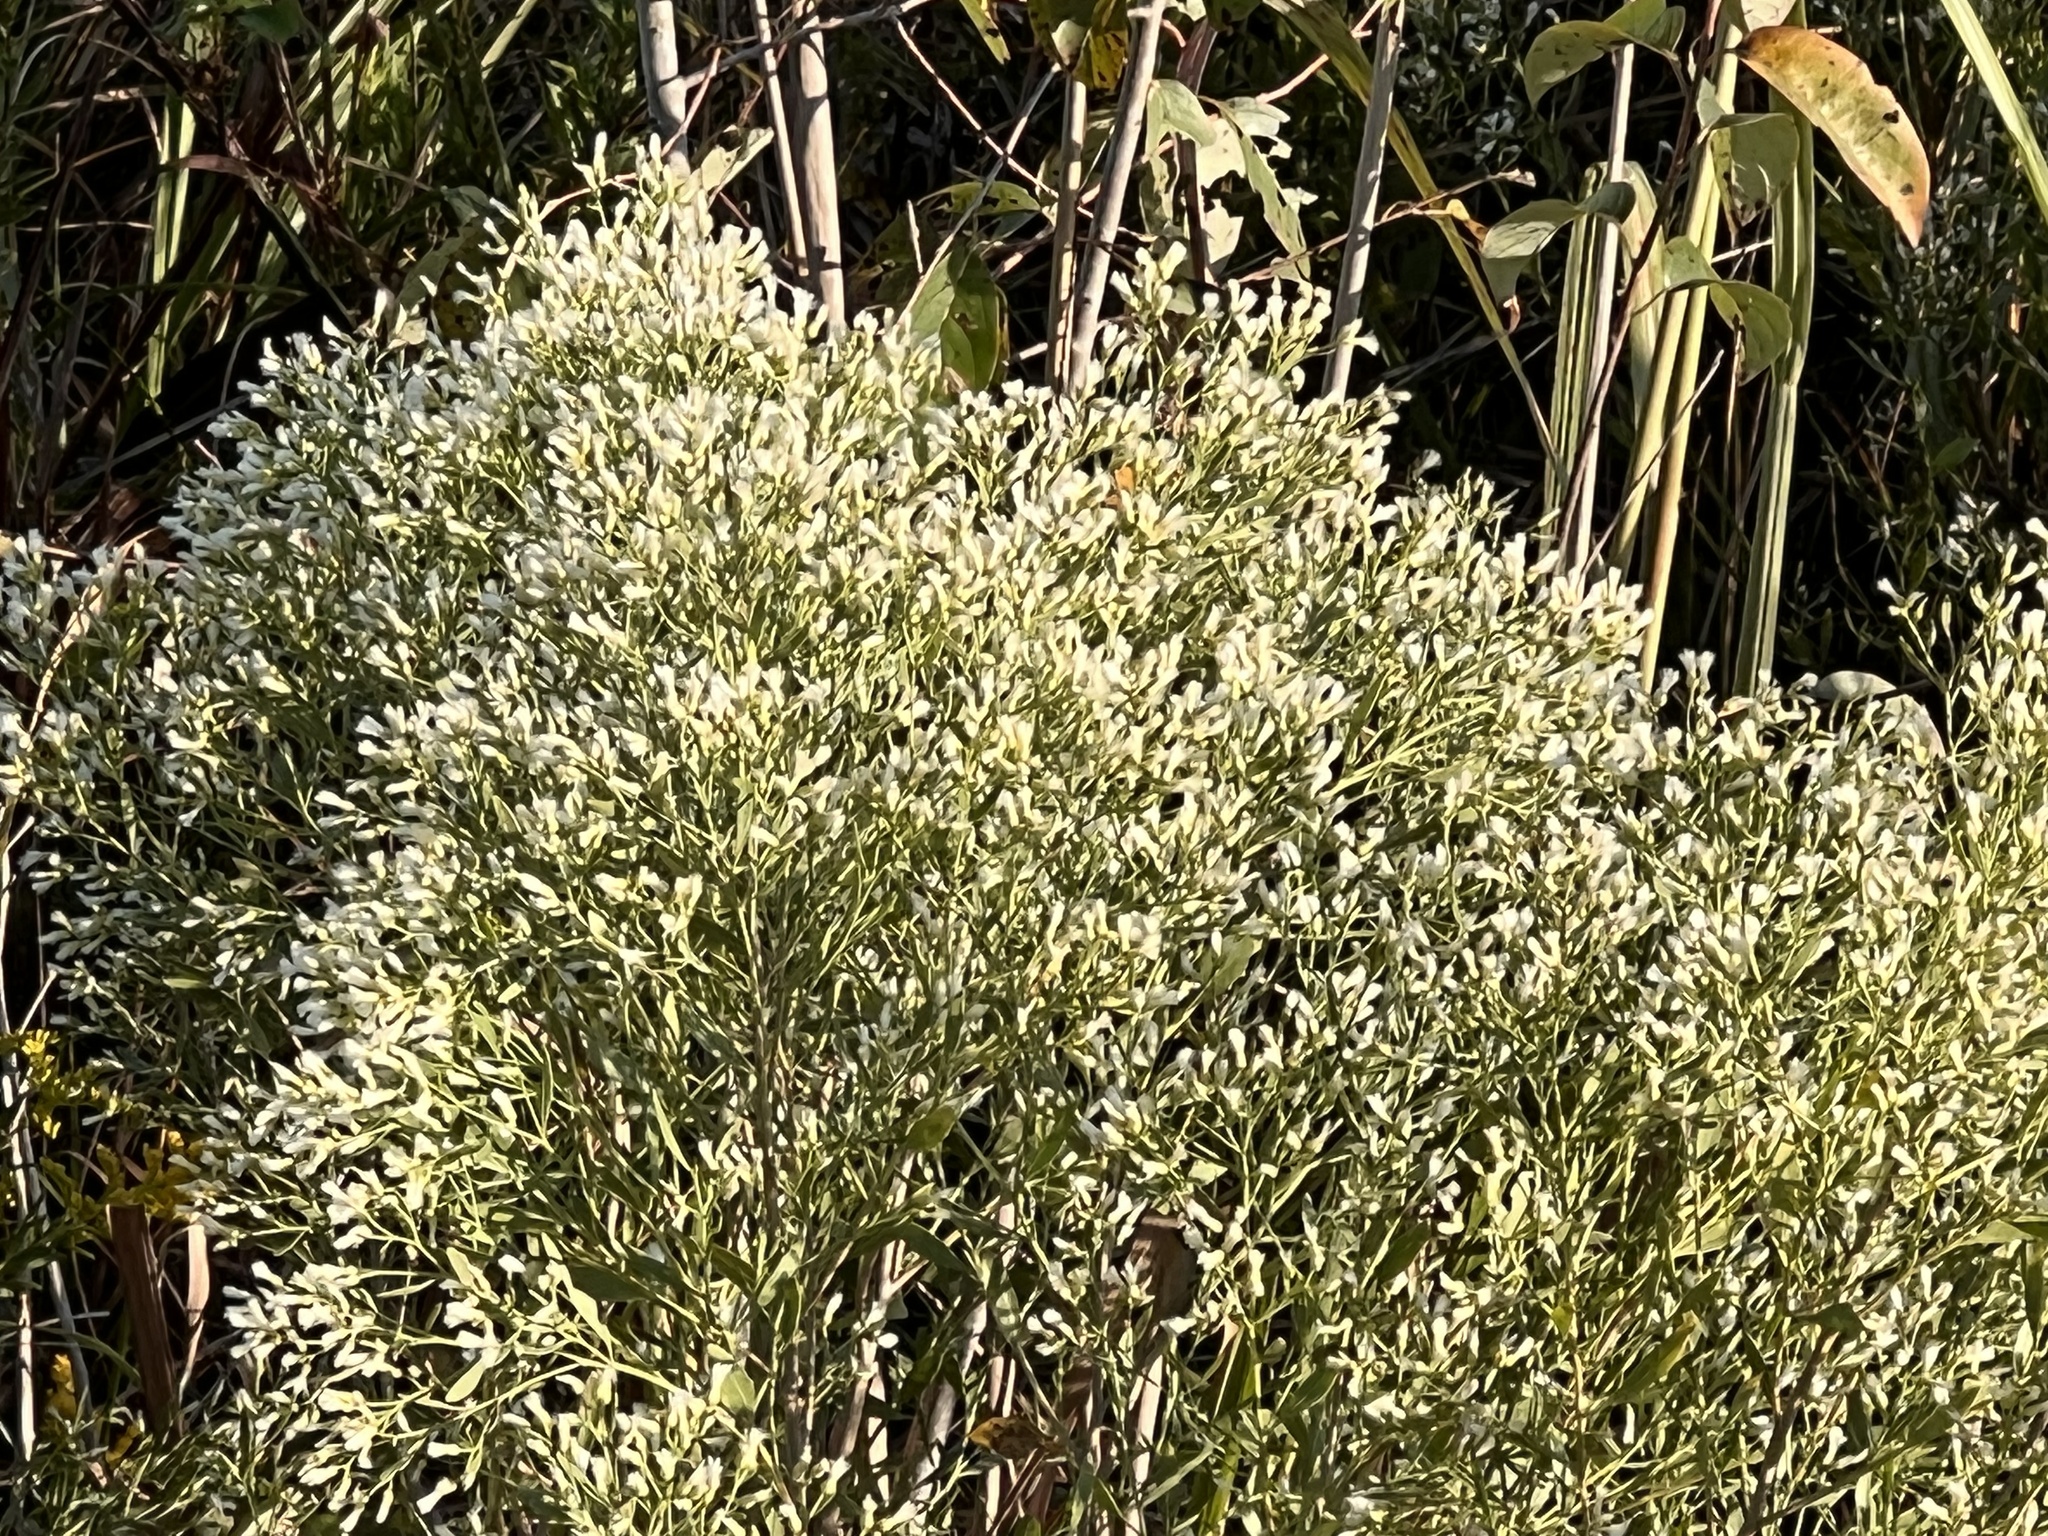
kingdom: Plantae
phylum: Tracheophyta
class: Magnoliopsida
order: Asterales
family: Asteraceae
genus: Baccharis
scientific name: Baccharis neglecta
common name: Roosevelt-weed
